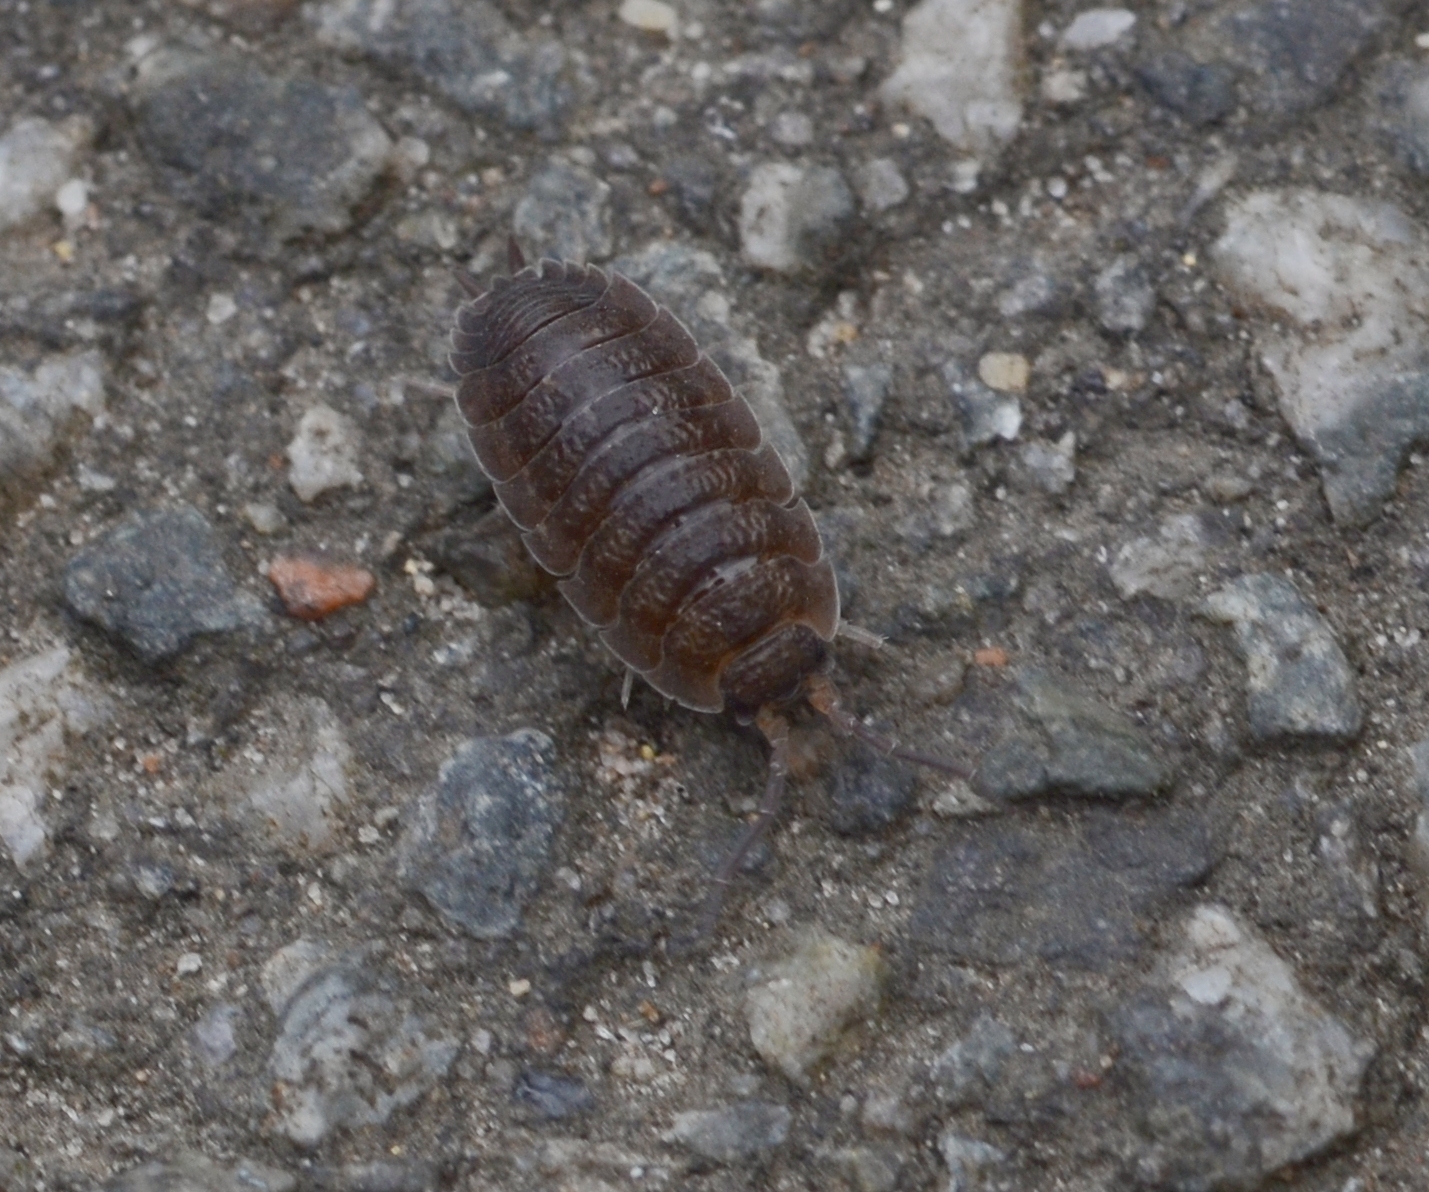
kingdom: Animalia
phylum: Arthropoda
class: Malacostraca
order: Isopoda
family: Porcellionidae
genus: Porcellio
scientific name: Porcellio scaber
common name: Common rough woodlouse
